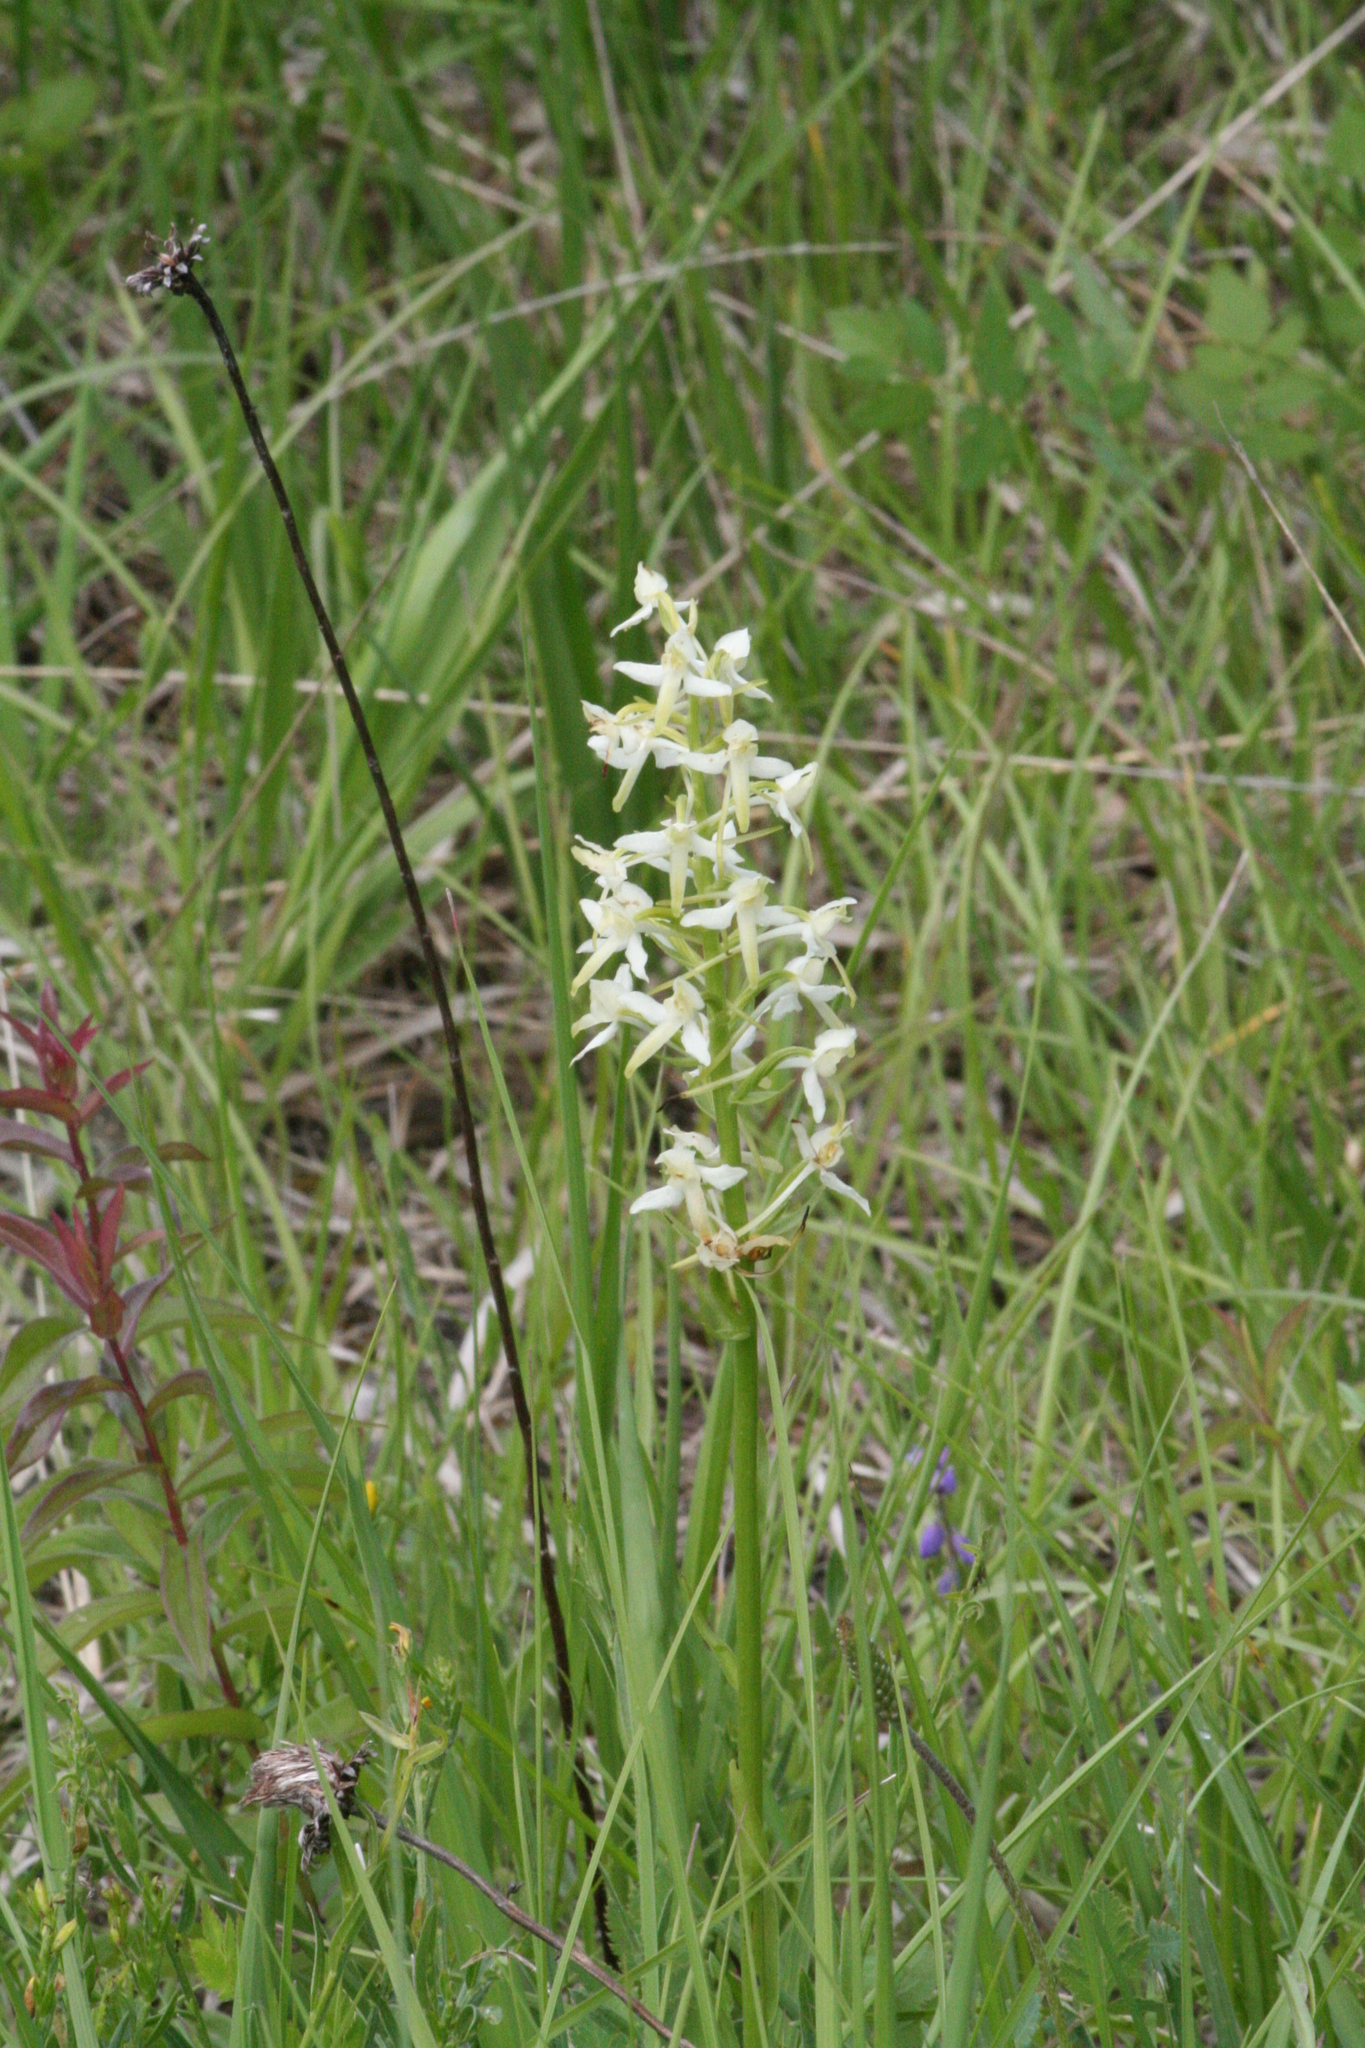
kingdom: Plantae
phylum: Tracheophyta
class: Liliopsida
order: Asparagales
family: Orchidaceae
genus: Platanthera
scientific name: Platanthera bifolia
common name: Lesser butterfly-orchid
